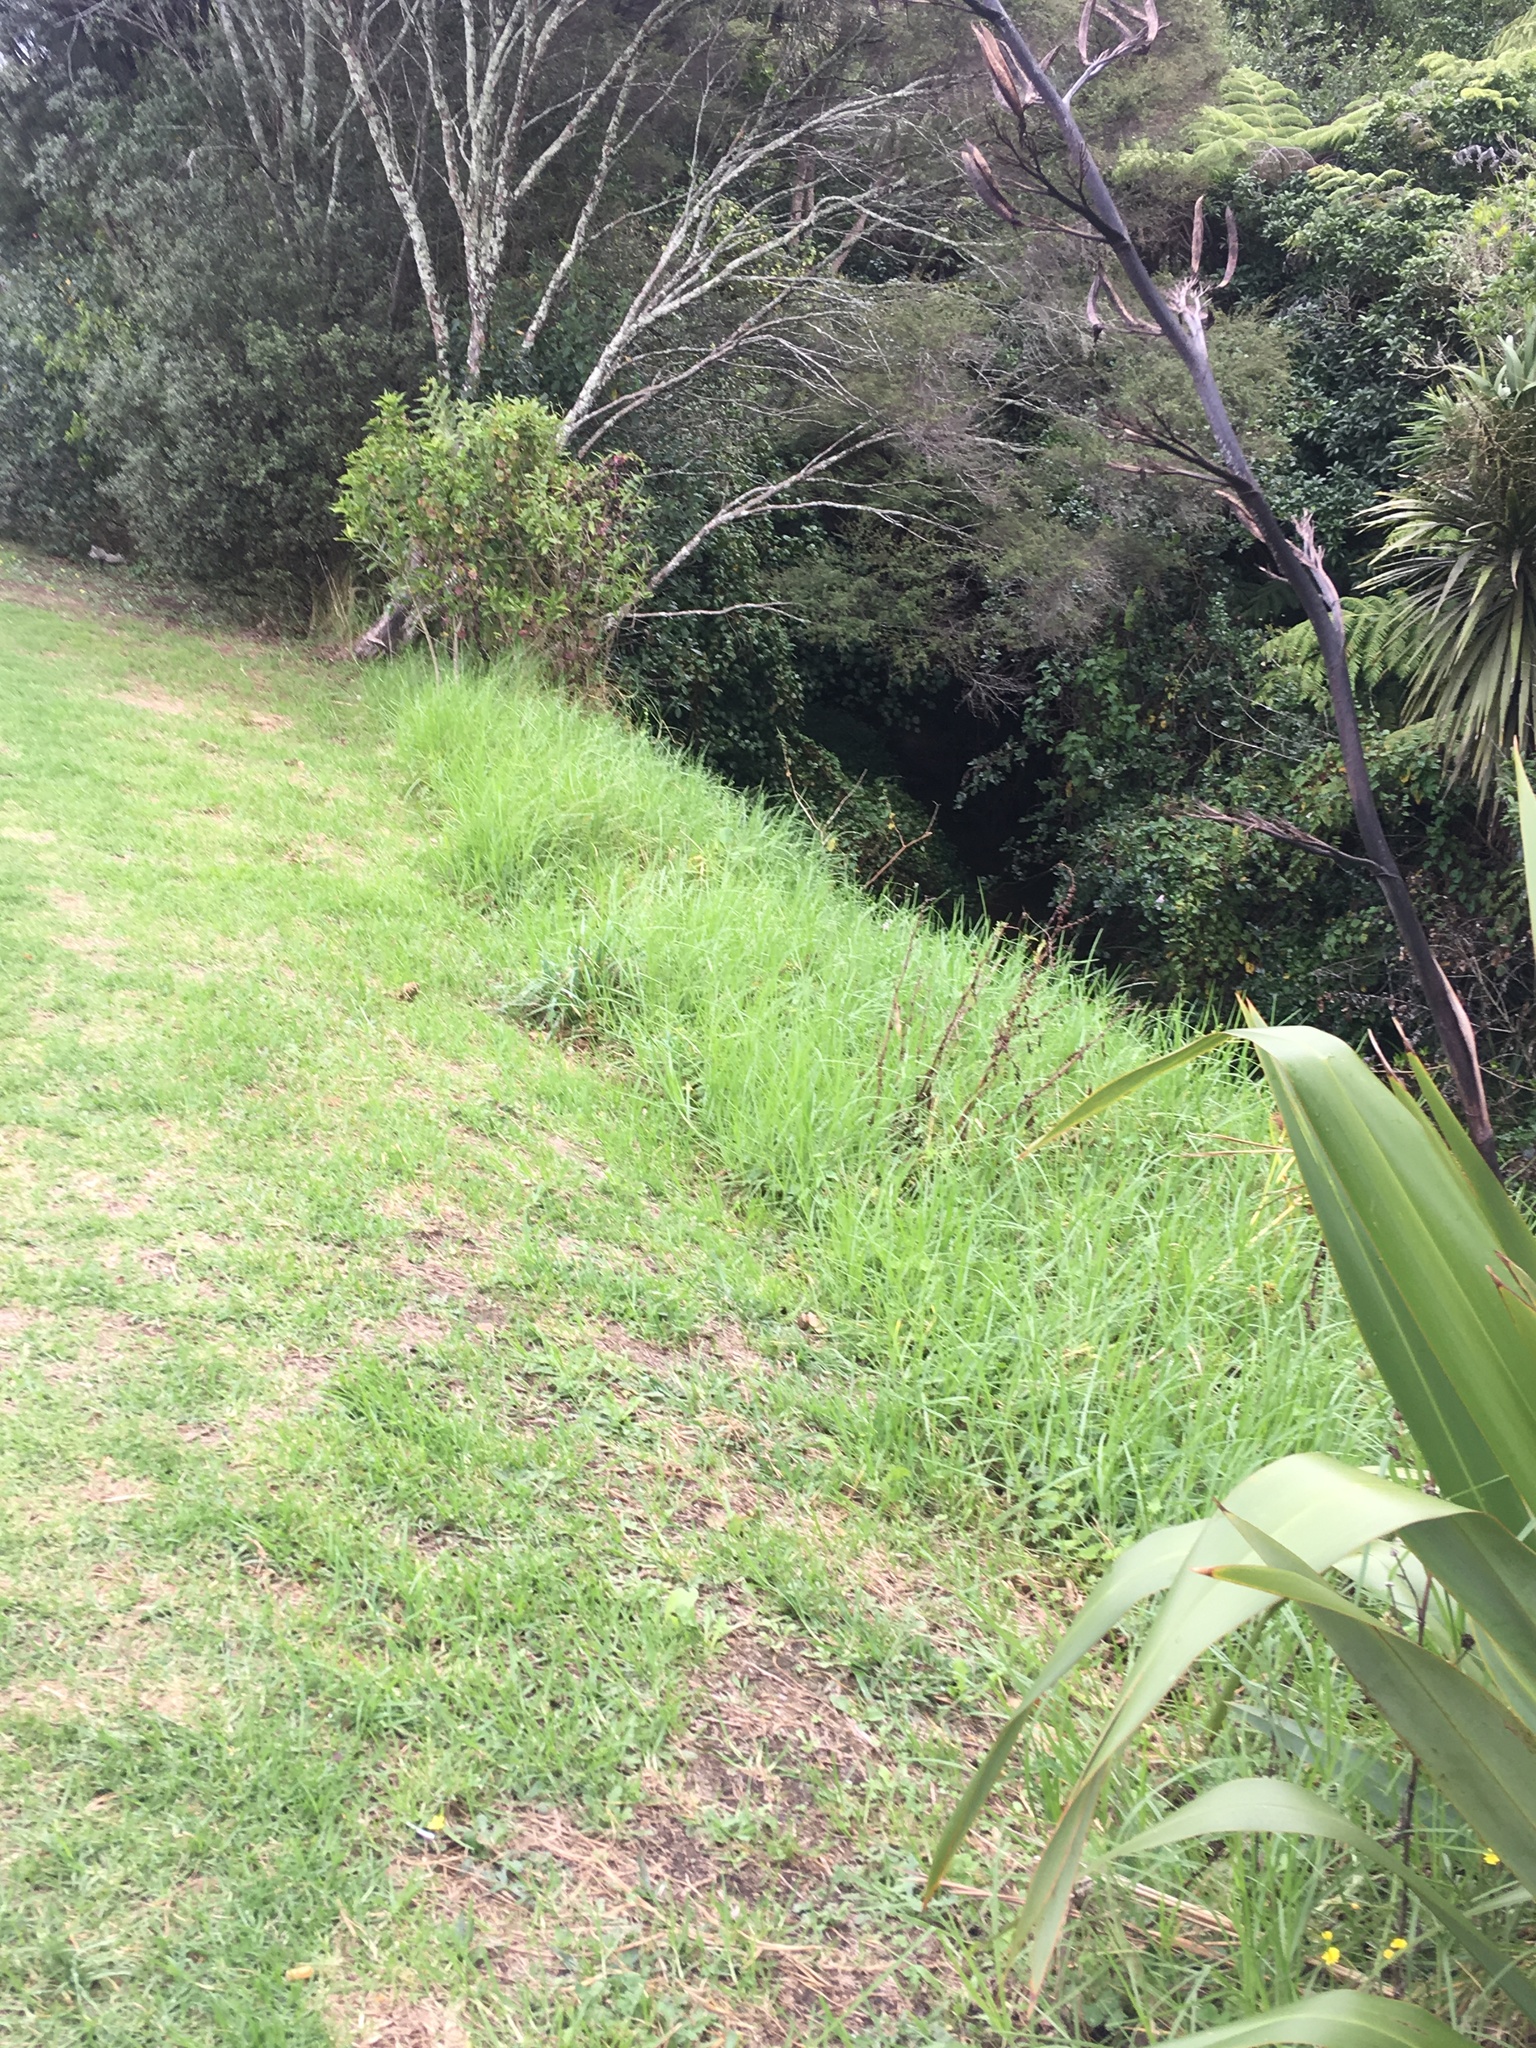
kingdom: Plantae
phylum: Tracheophyta
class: Liliopsida
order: Poales
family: Poaceae
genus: Cenchrus
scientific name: Cenchrus clandestinus
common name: Kikuyugrass
